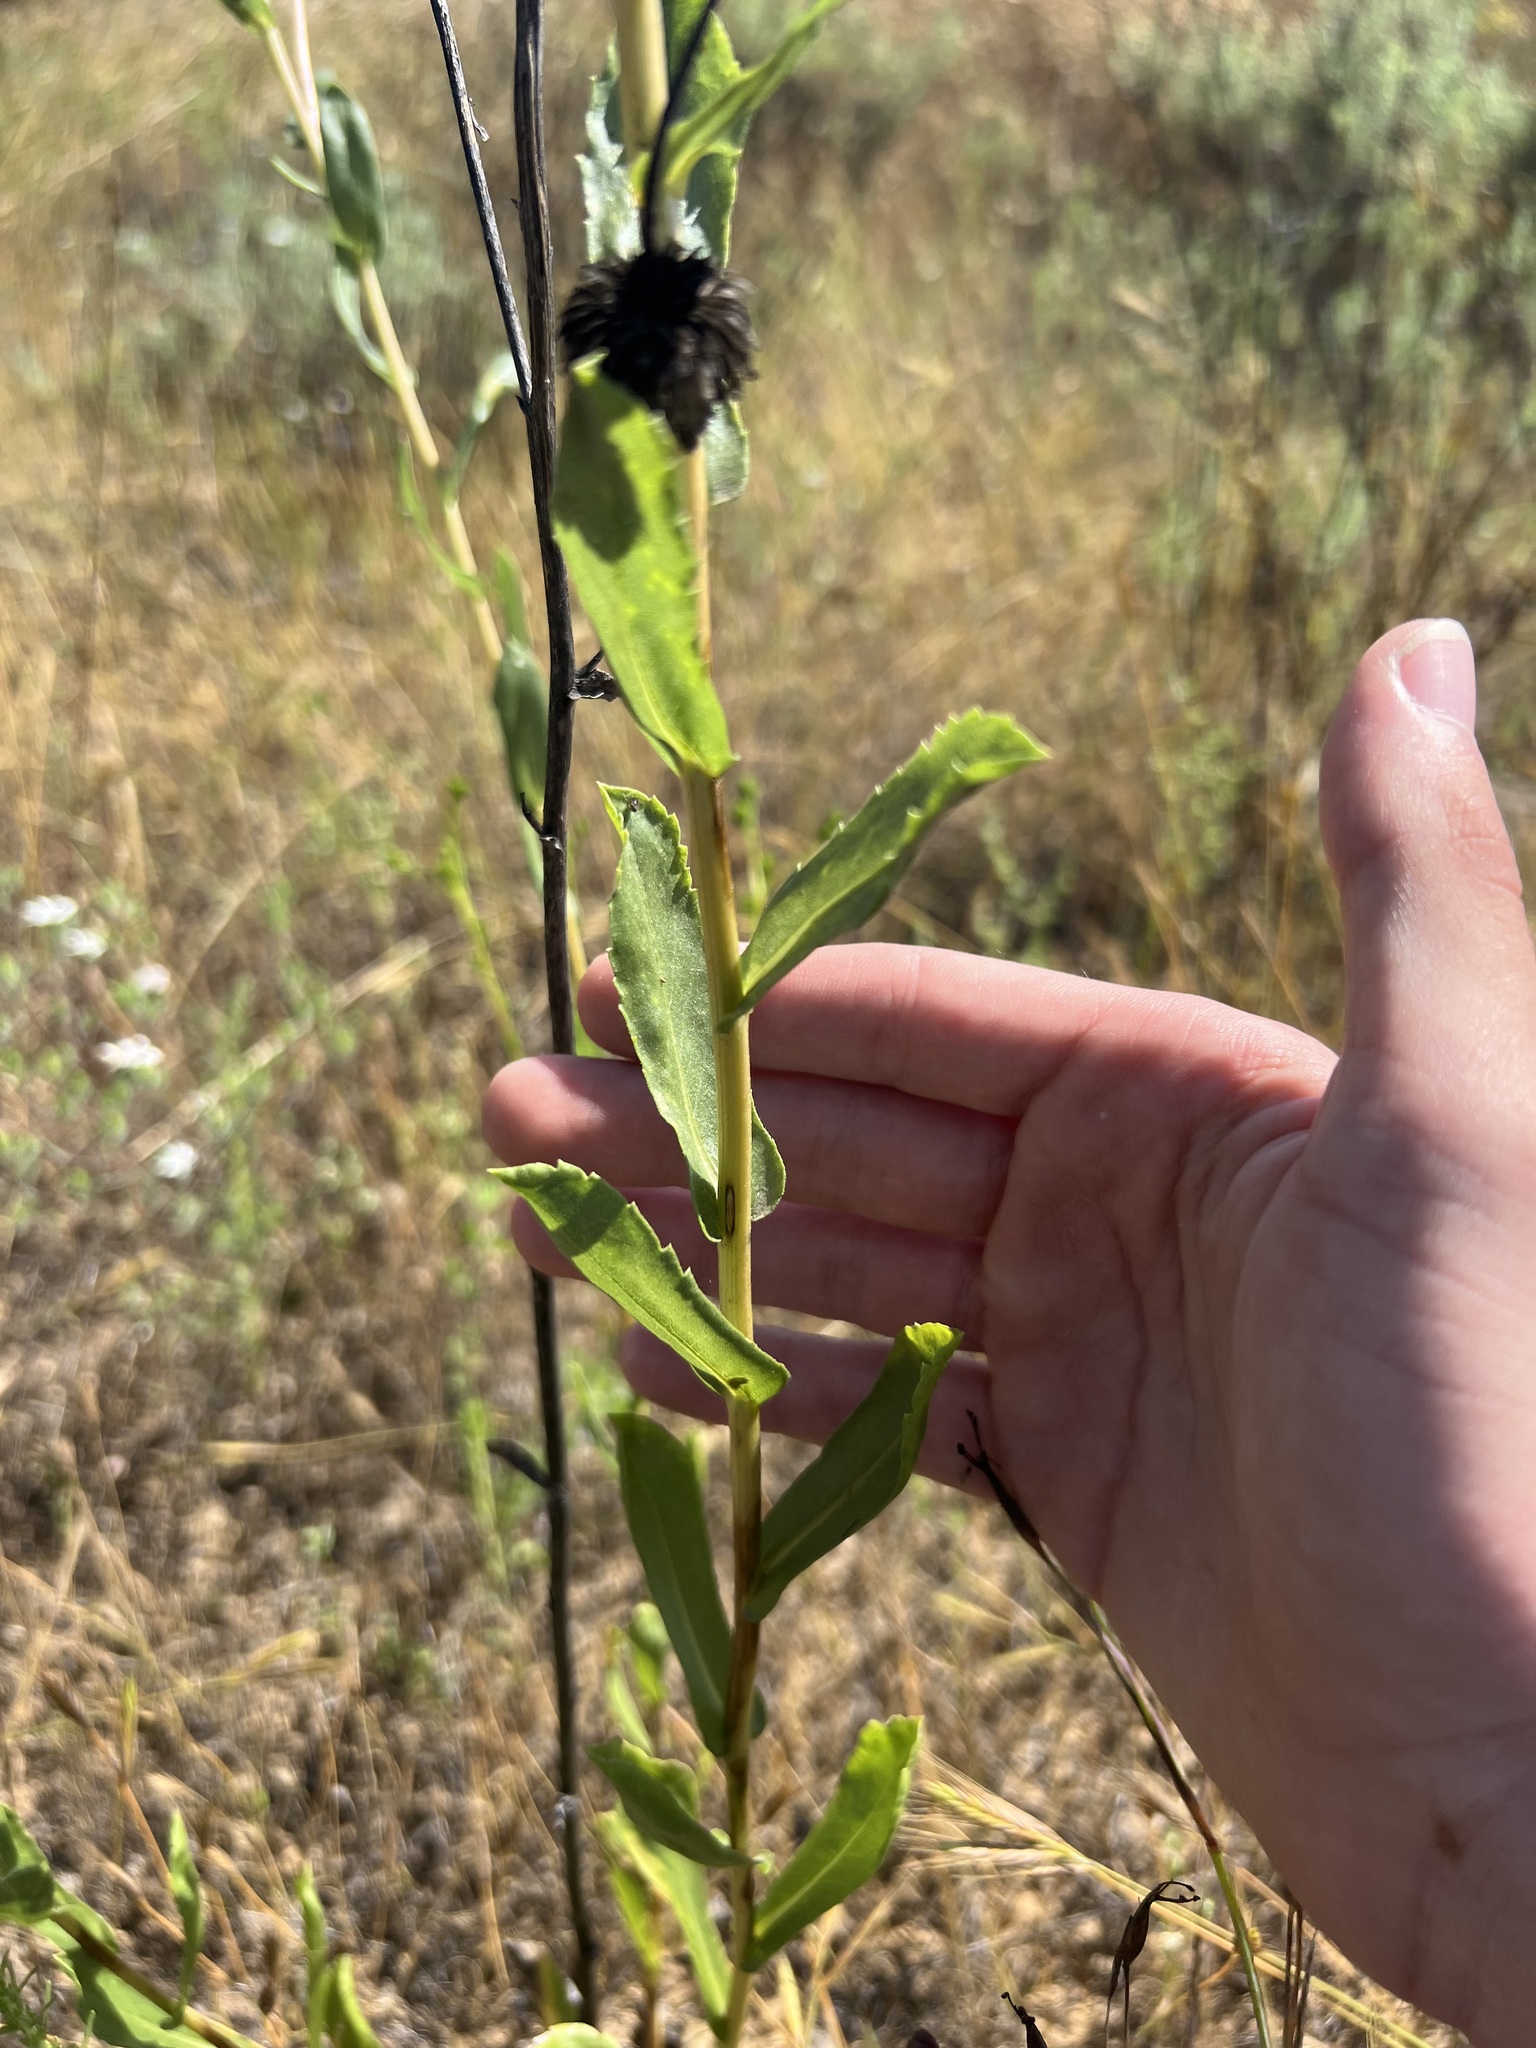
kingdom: Plantae
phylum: Tracheophyta
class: Magnoliopsida
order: Asterales
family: Asteraceae
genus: Grindelia
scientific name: Grindelia hirsutula
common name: Hairy gumweed
